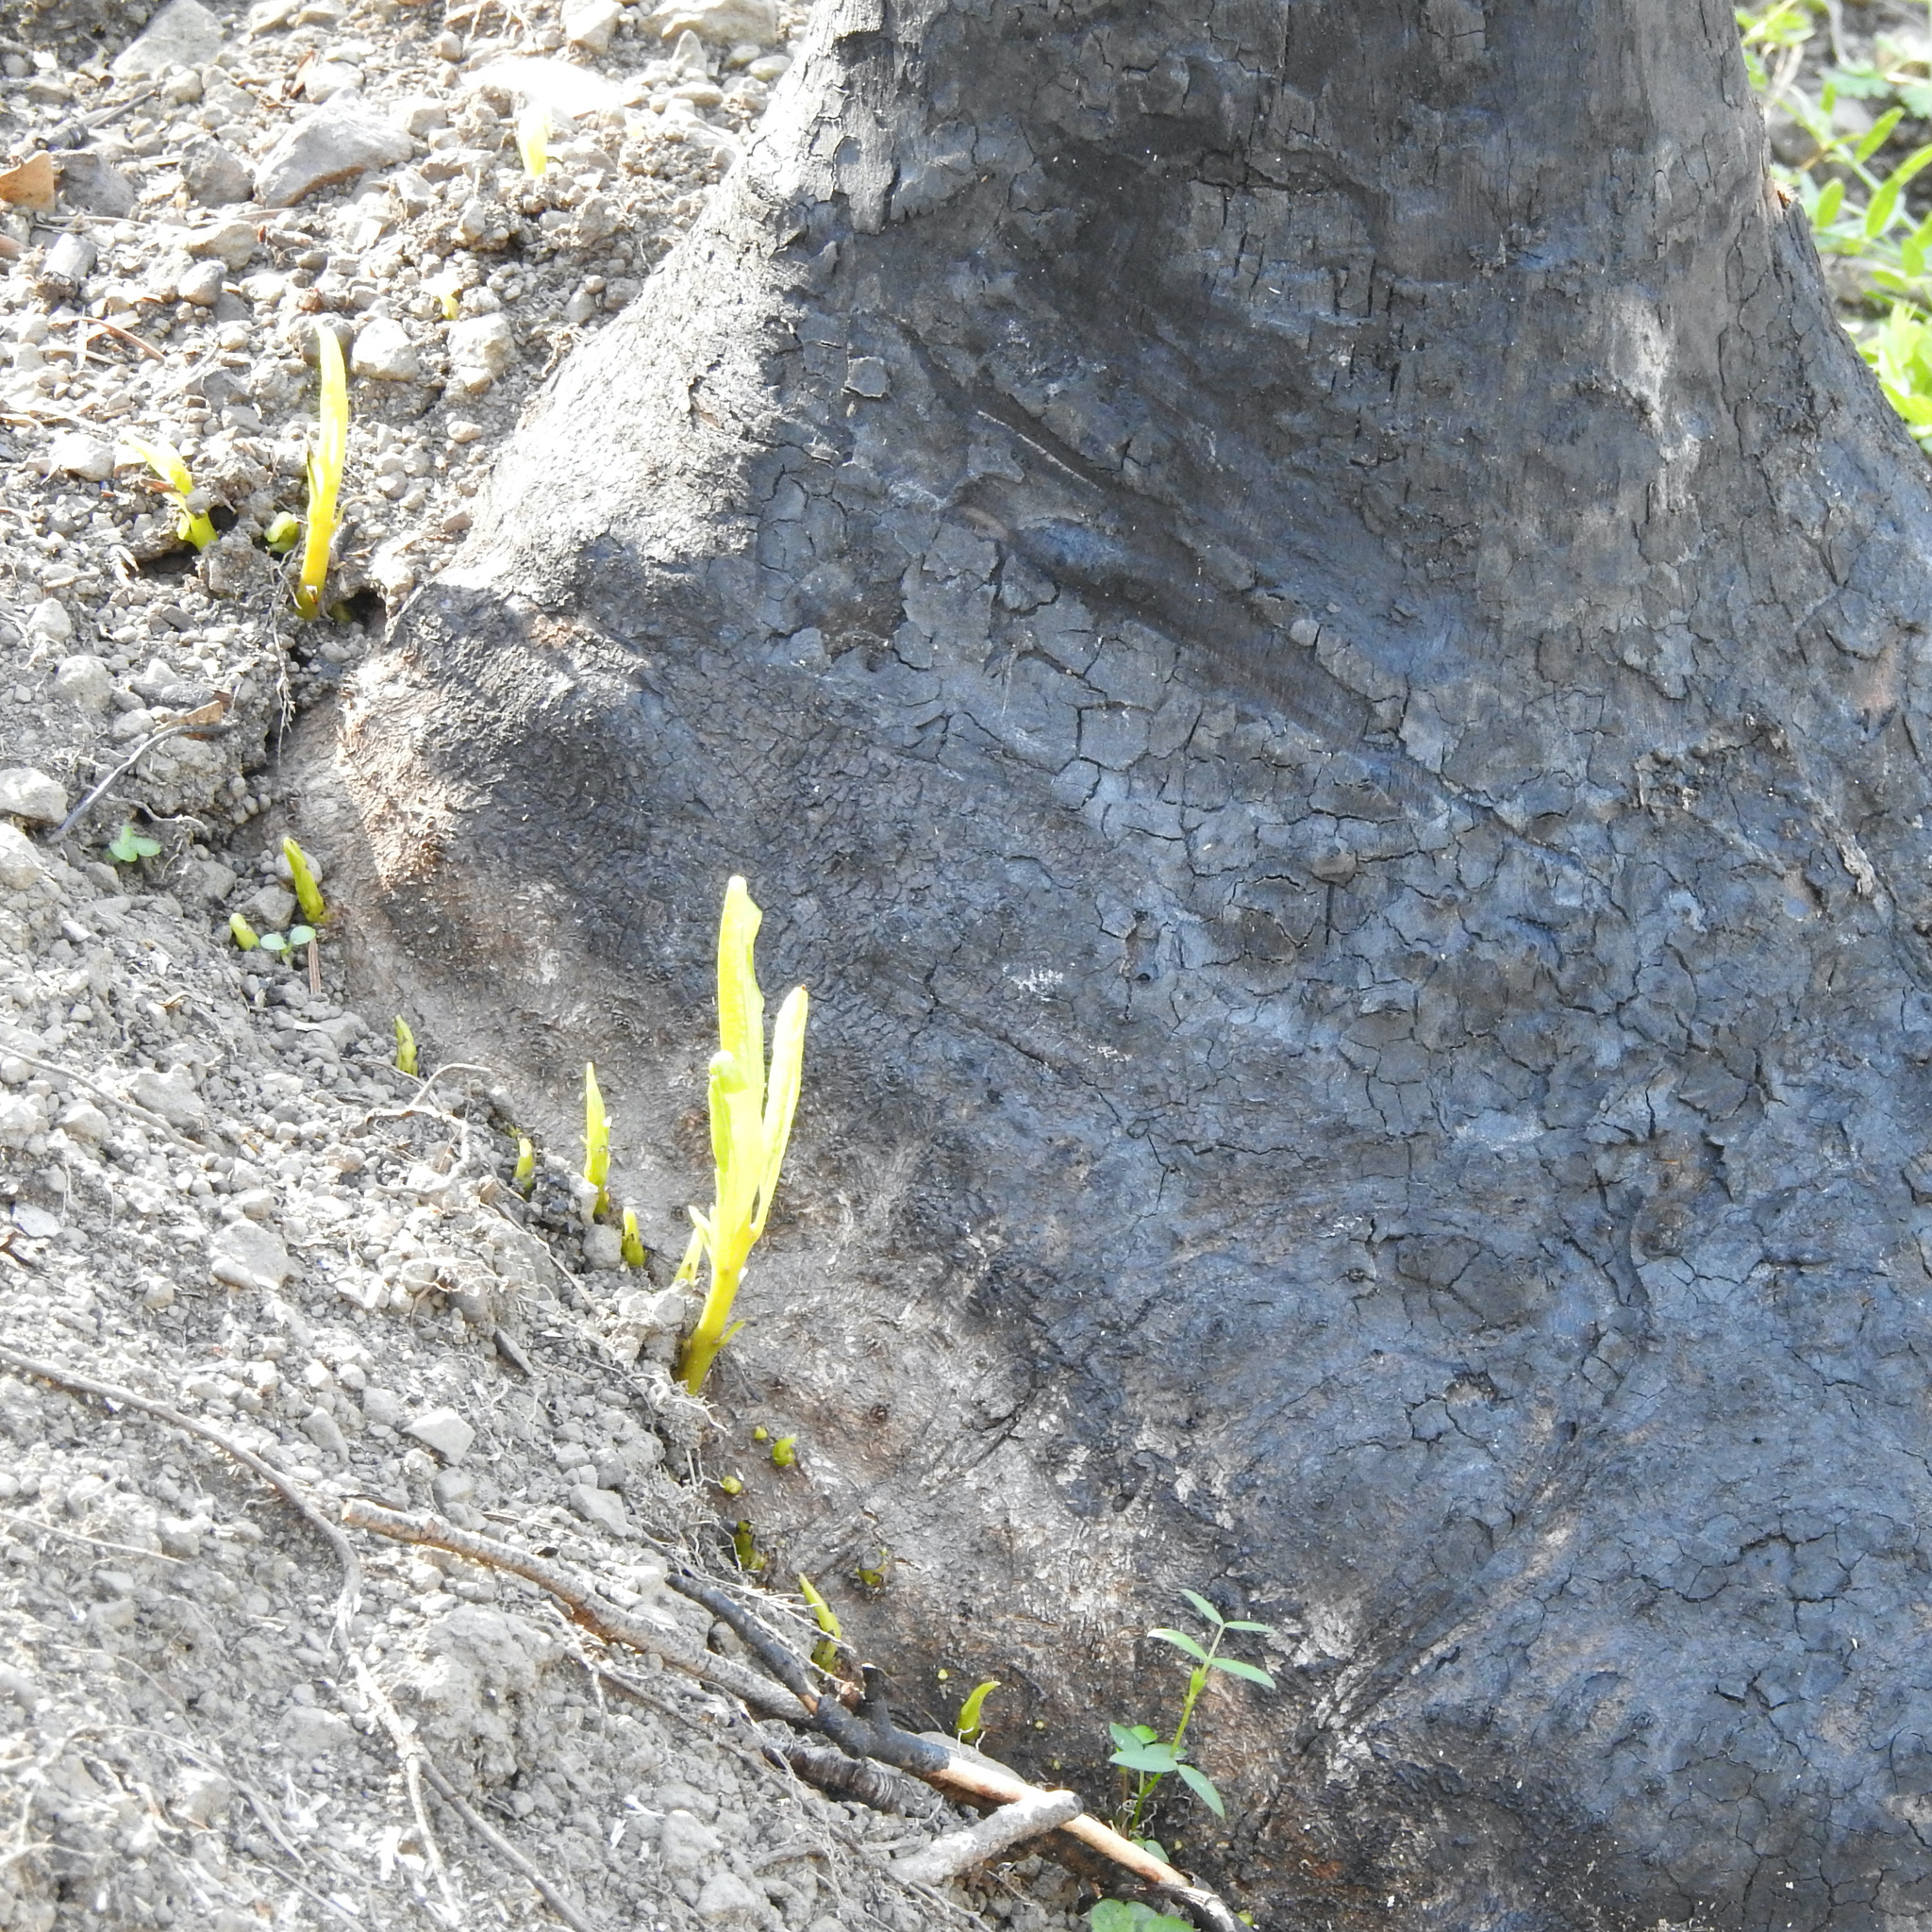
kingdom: Plantae
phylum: Tracheophyta
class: Magnoliopsida
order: Laurales
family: Lauraceae
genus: Umbellularia
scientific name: Umbellularia californica
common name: California bay
